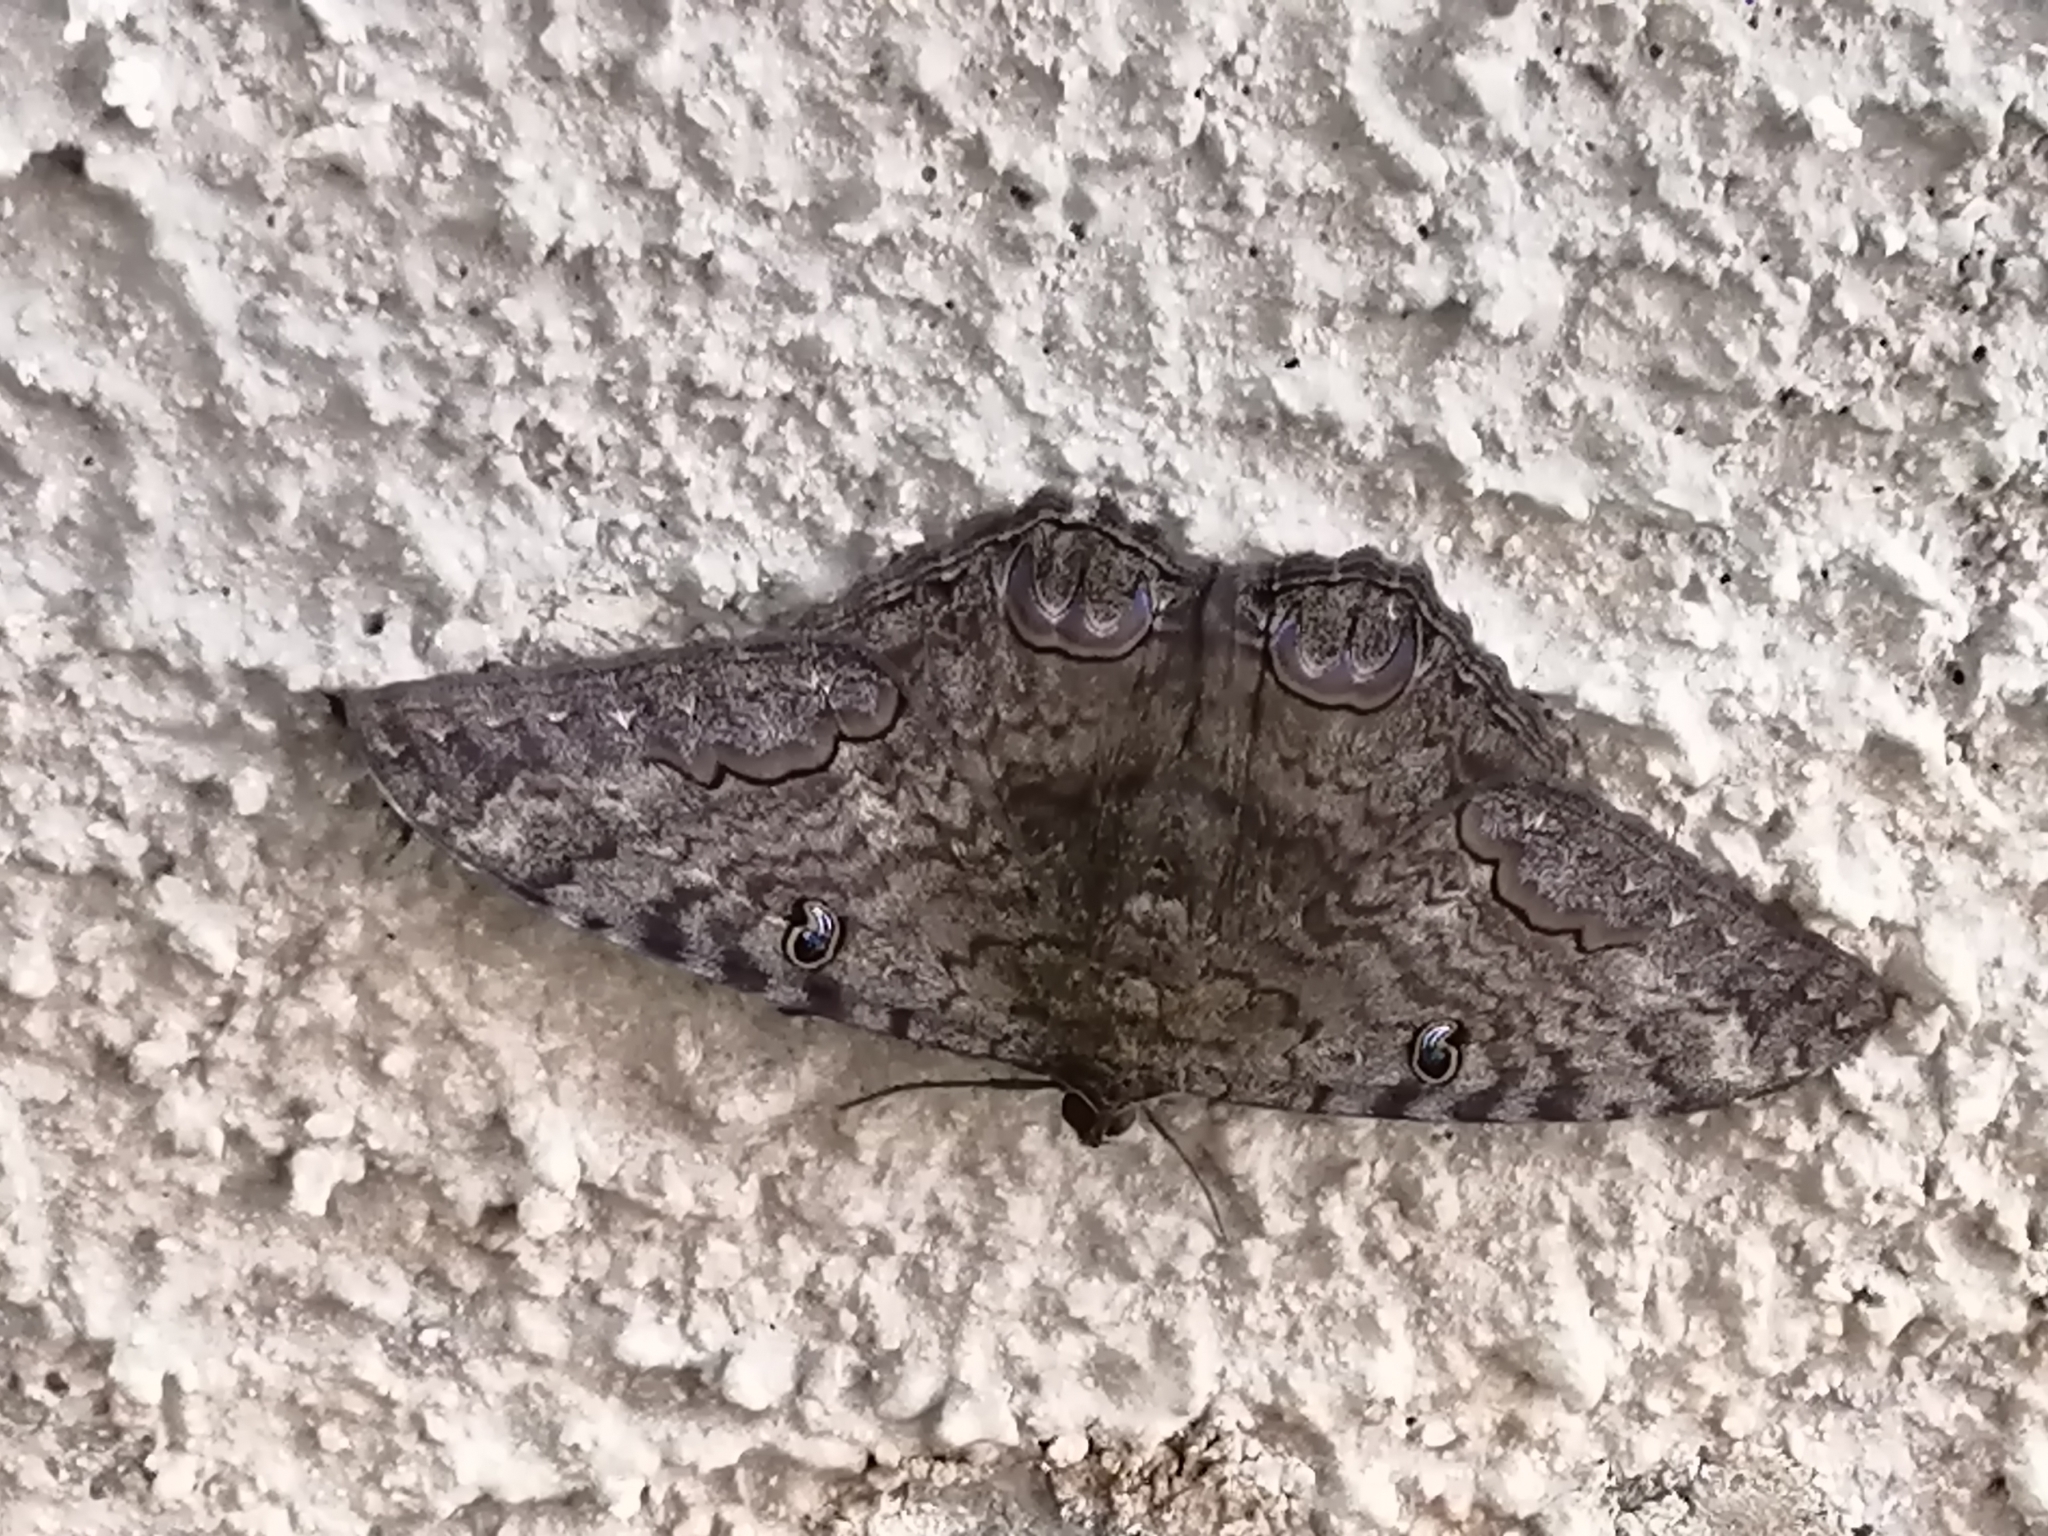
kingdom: Animalia
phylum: Arthropoda
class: Insecta
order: Lepidoptera
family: Erebidae
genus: Ascalapha
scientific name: Ascalapha odorata
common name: Black witch
